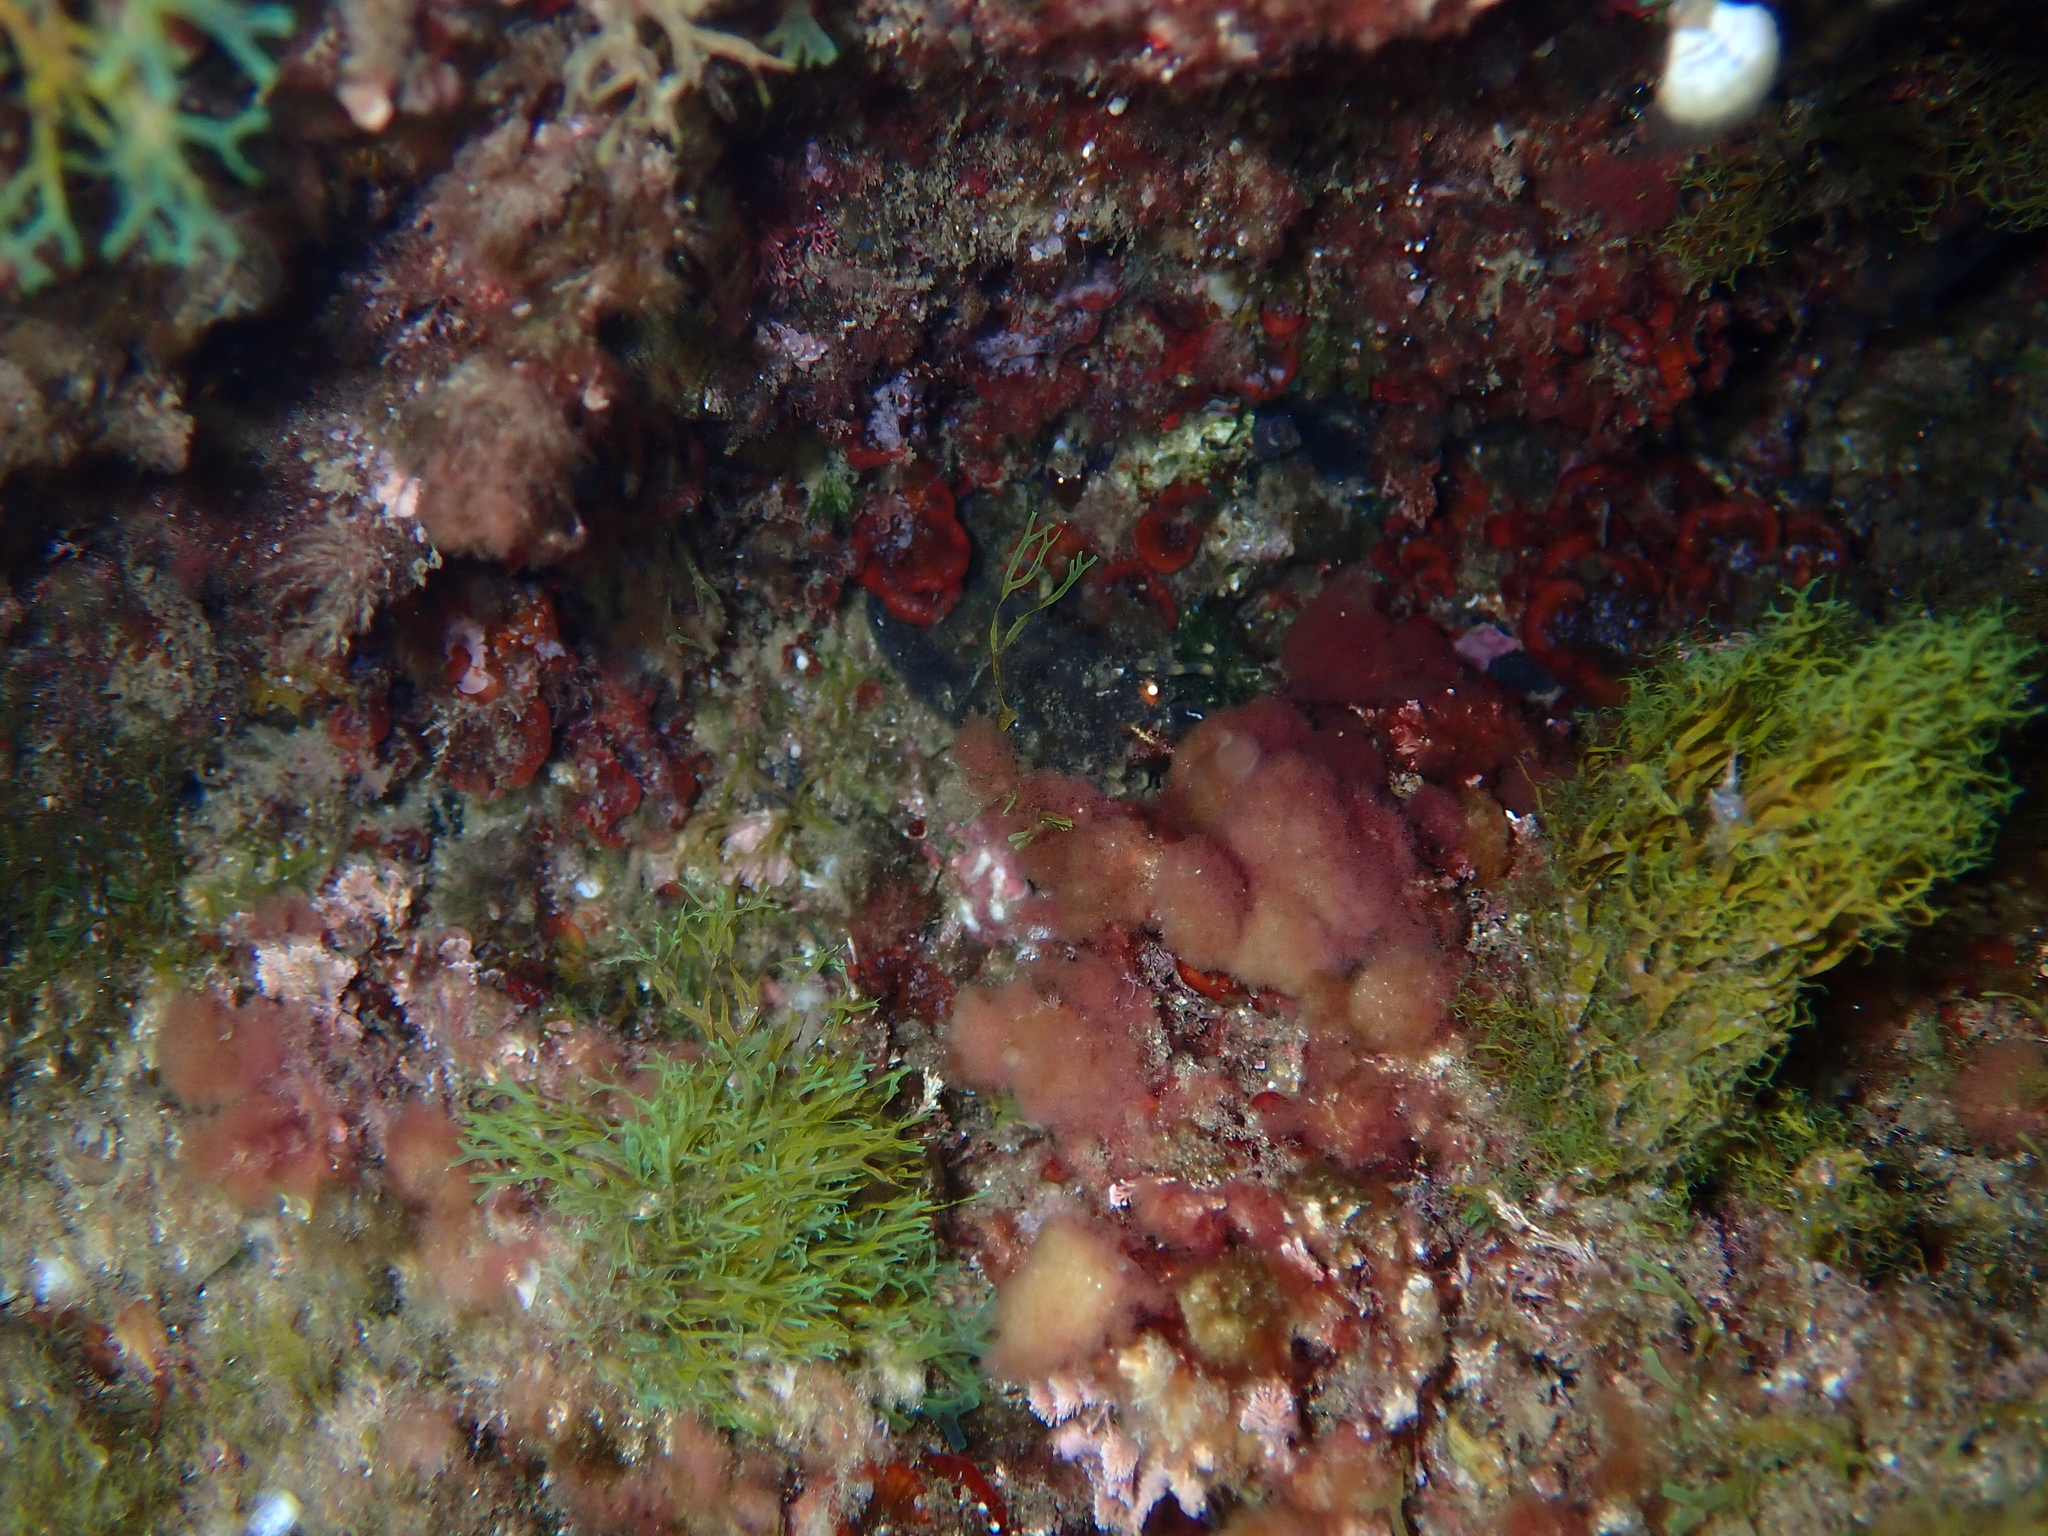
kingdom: Animalia
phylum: Arthropoda
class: Malacostraca
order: Decapoda
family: Scyllaridae
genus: Scyllarus
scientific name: Scyllarus arctus
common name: Small european locust lobster
